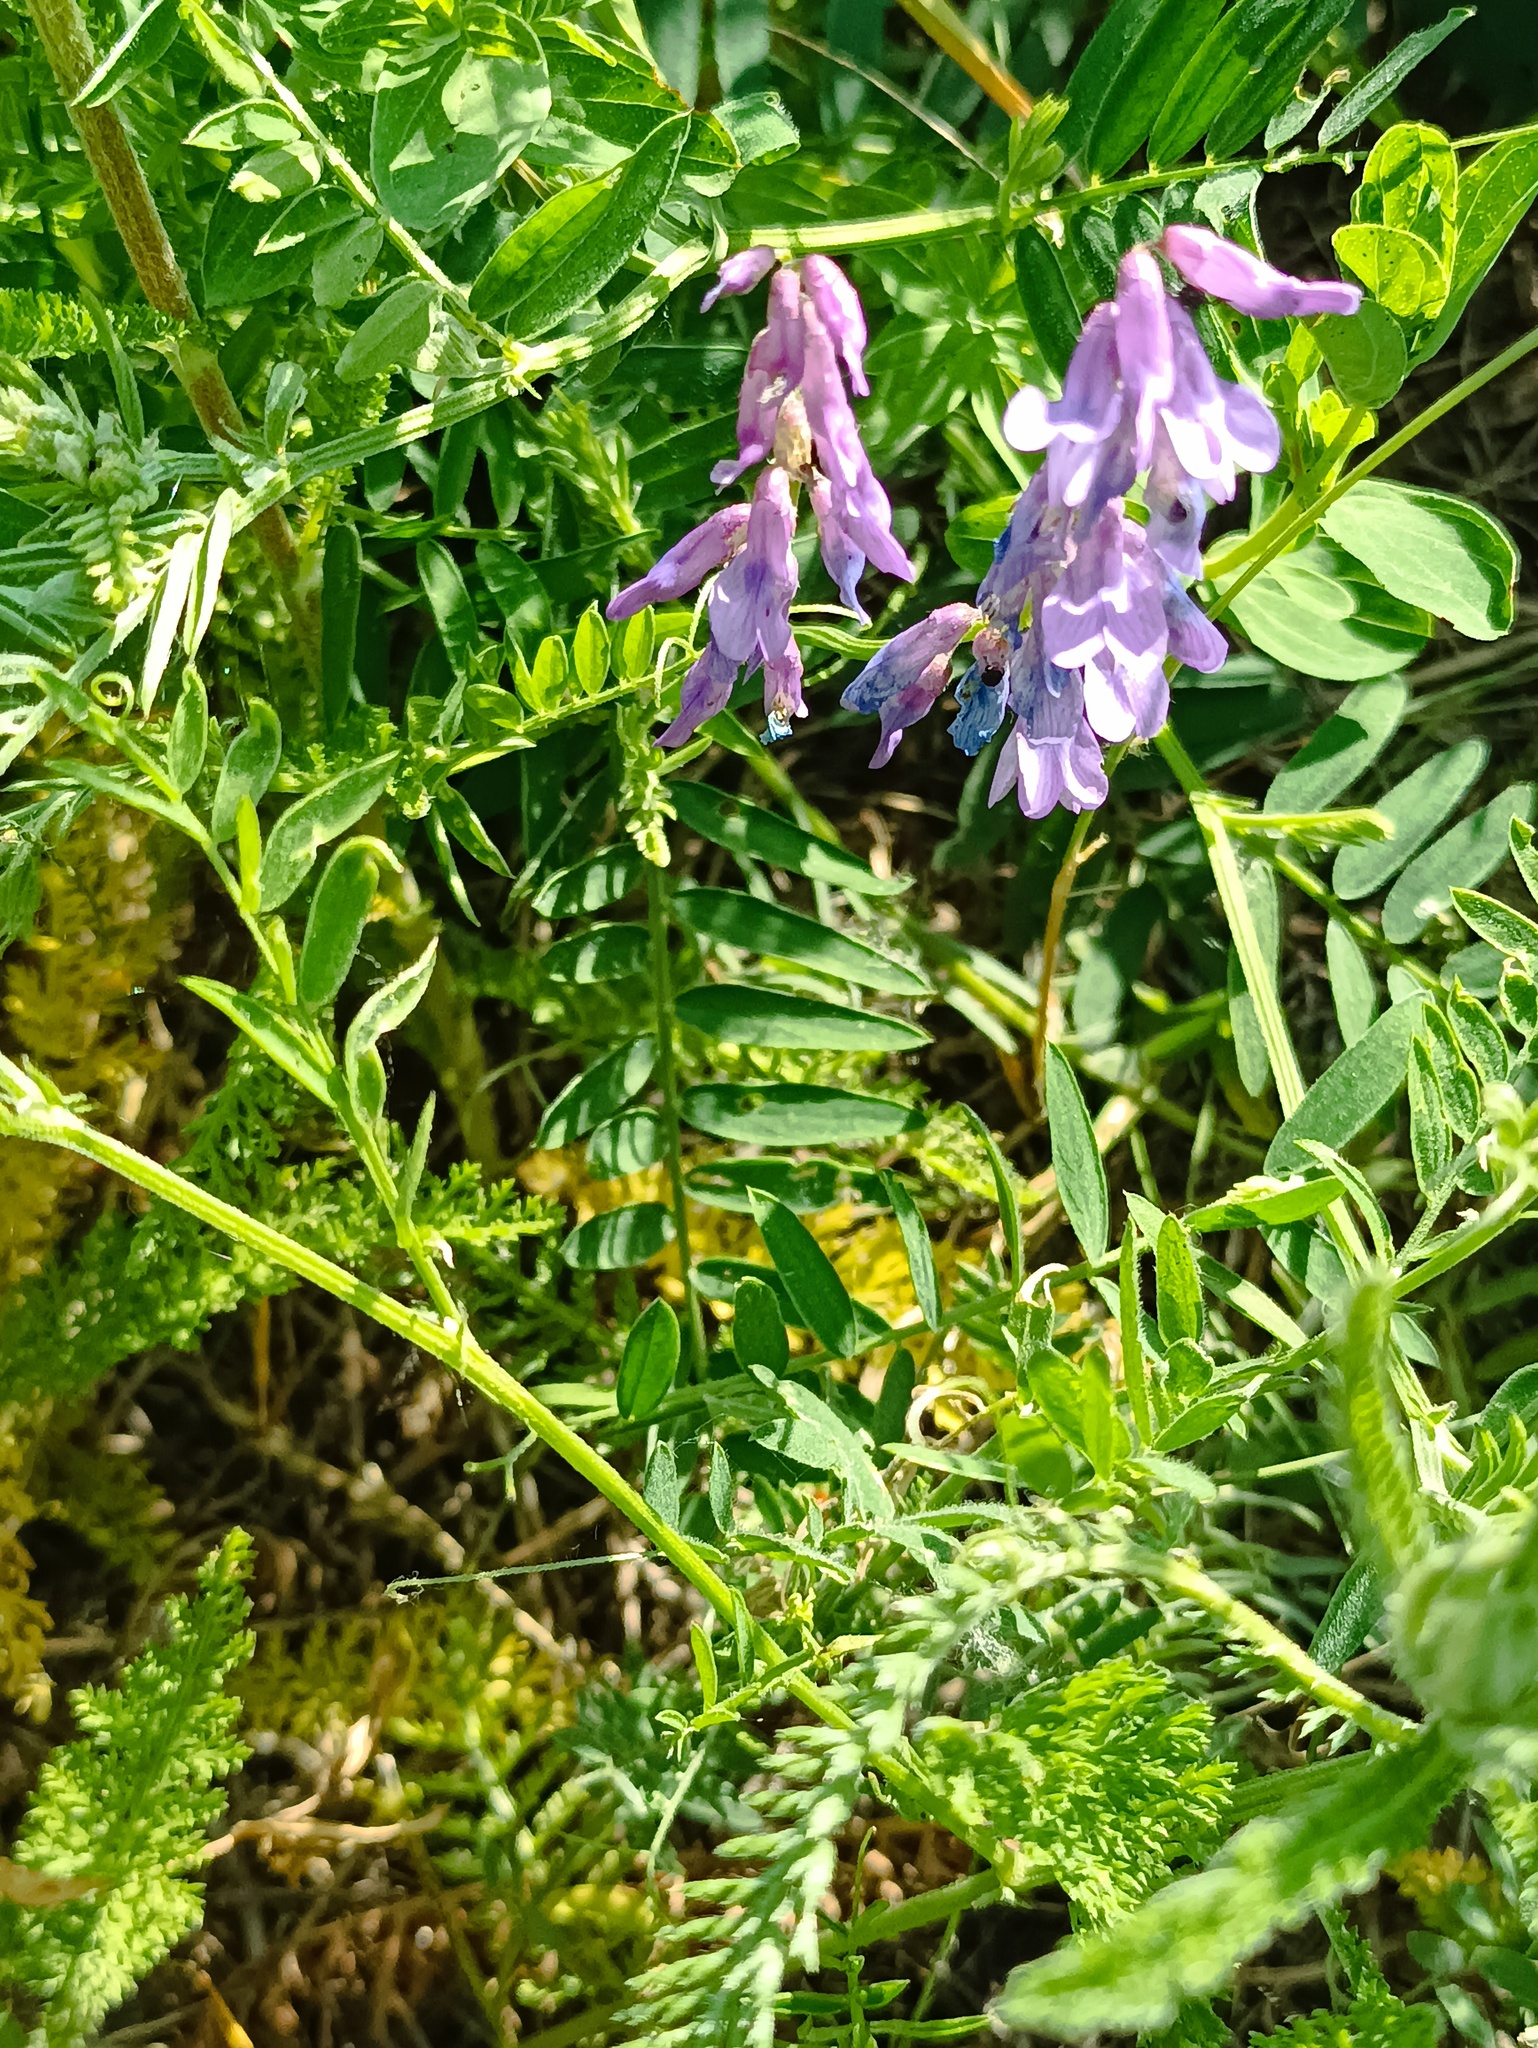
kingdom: Plantae
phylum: Tracheophyta
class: Magnoliopsida
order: Fabales
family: Fabaceae
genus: Vicia
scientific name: Vicia cracca
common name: Bird vetch
